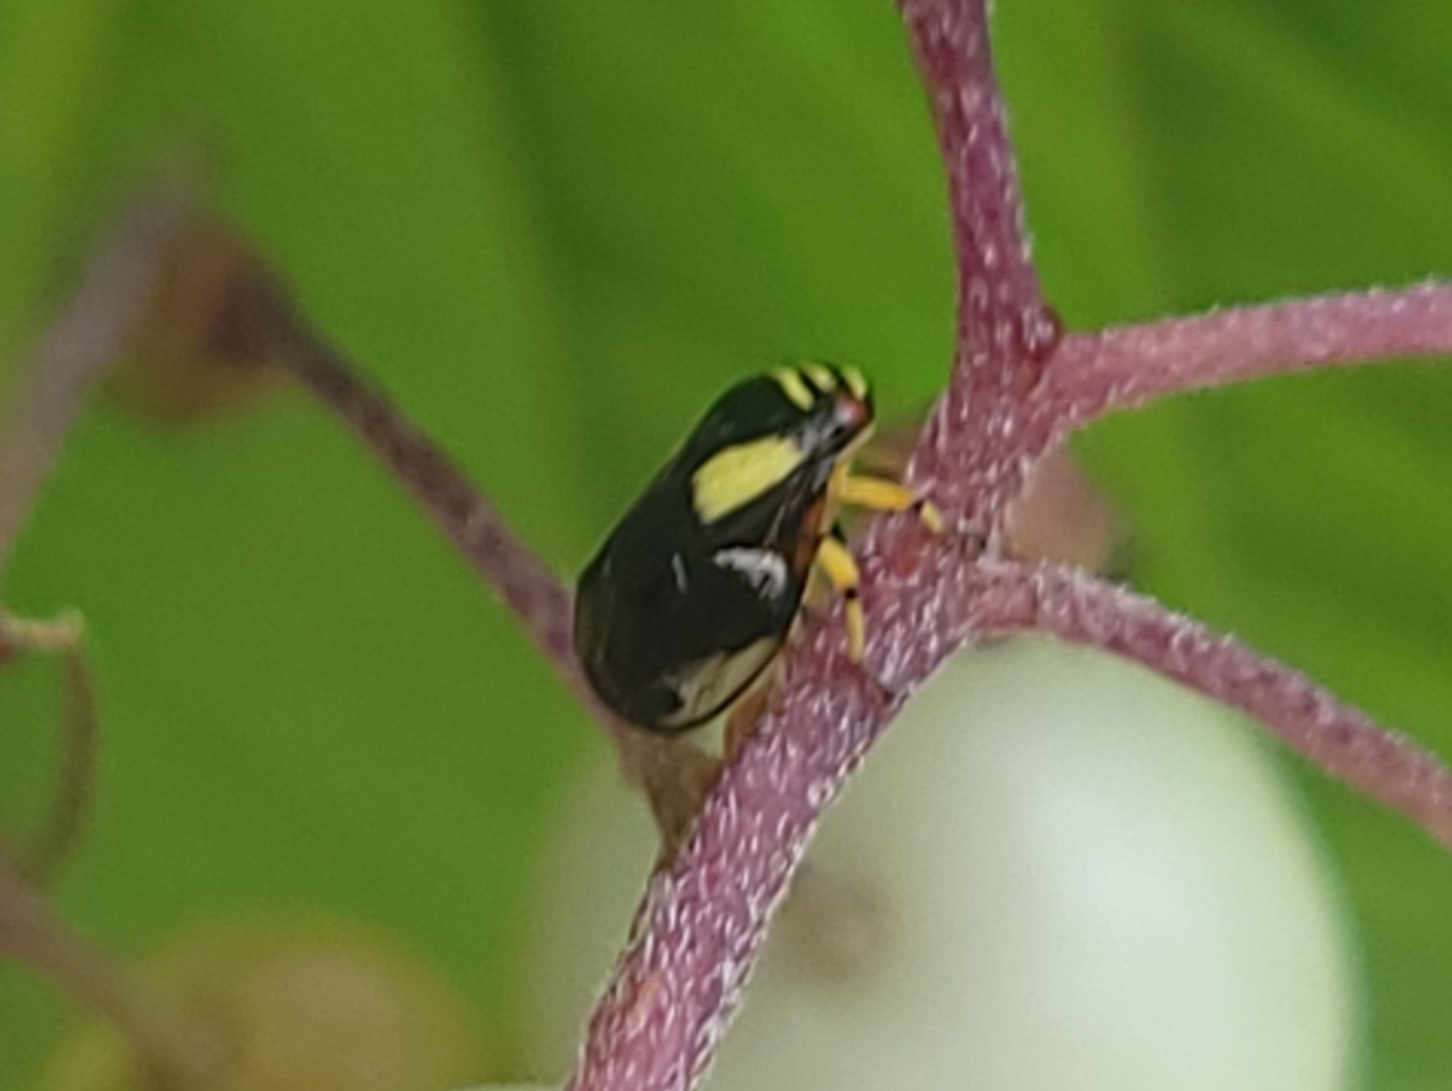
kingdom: Animalia
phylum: Arthropoda
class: Insecta
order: Hemiptera
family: Clastopteridae
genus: Clastoptera
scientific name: Clastoptera proteus
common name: Dogwood spittlebug
